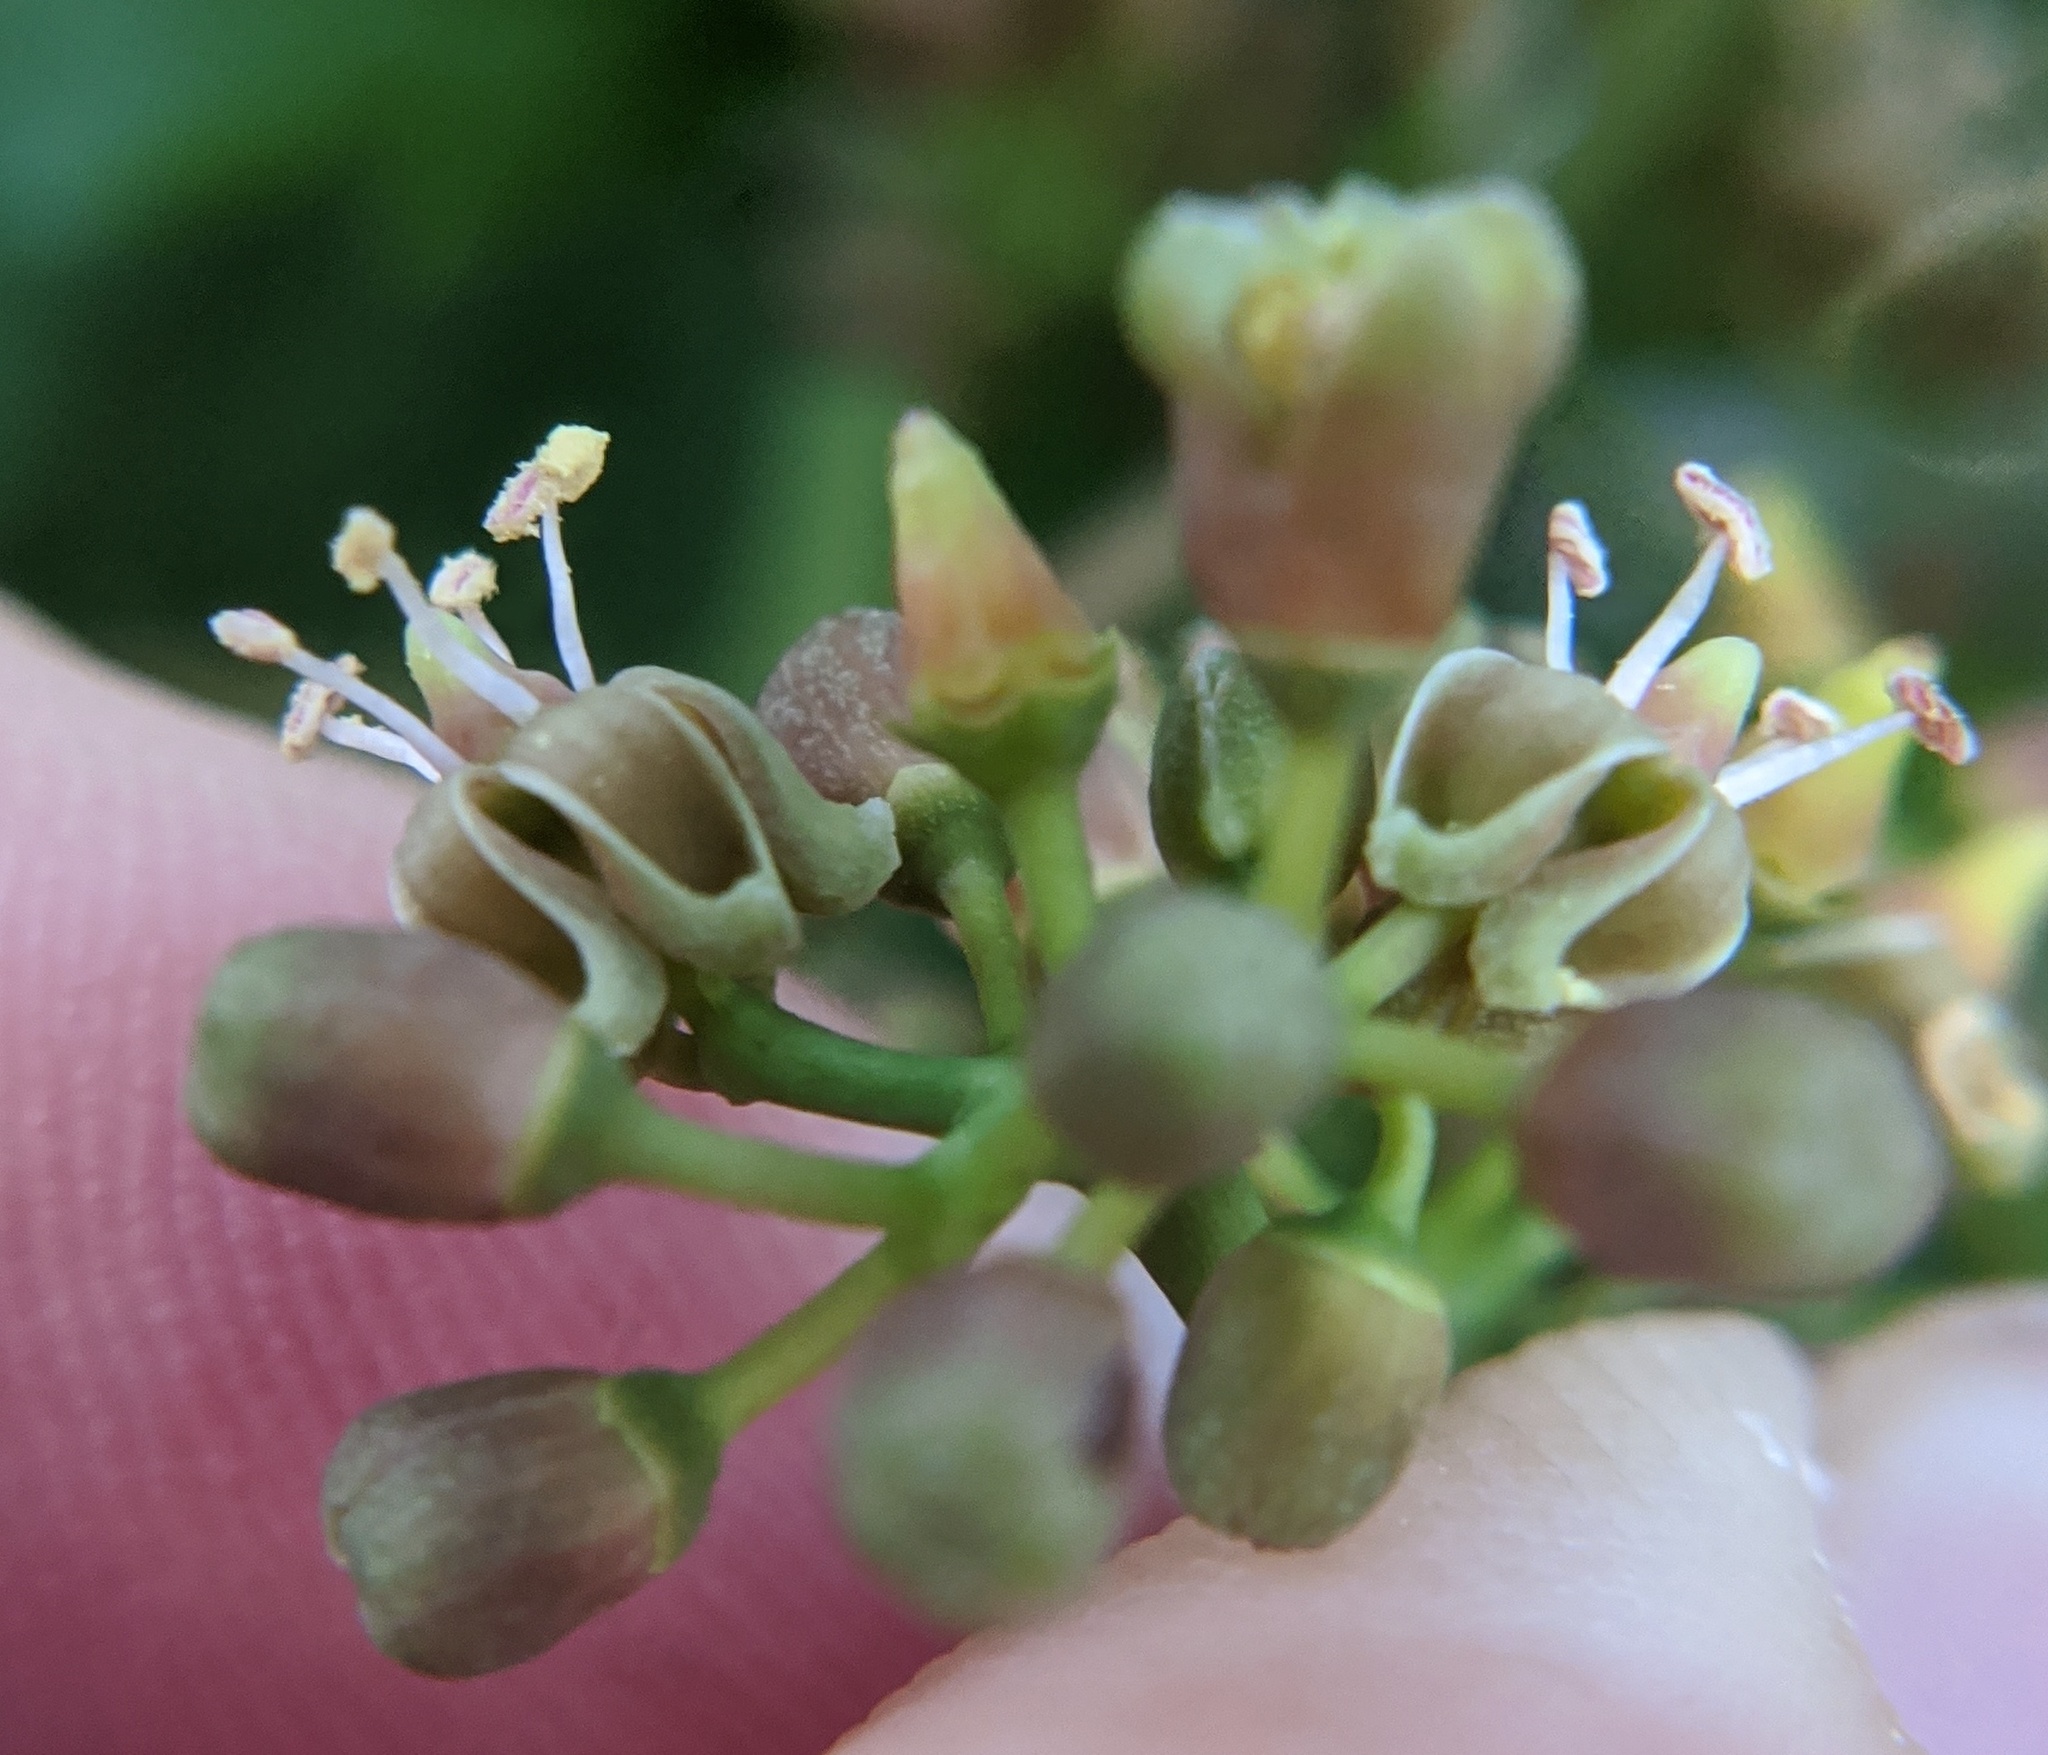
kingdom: Plantae
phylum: Tracheophyta
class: Magnoliopsida
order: Vitales
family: Vitaceae
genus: Parthenocissus
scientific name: Parthenocissus inserta
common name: False virginia-creeper
